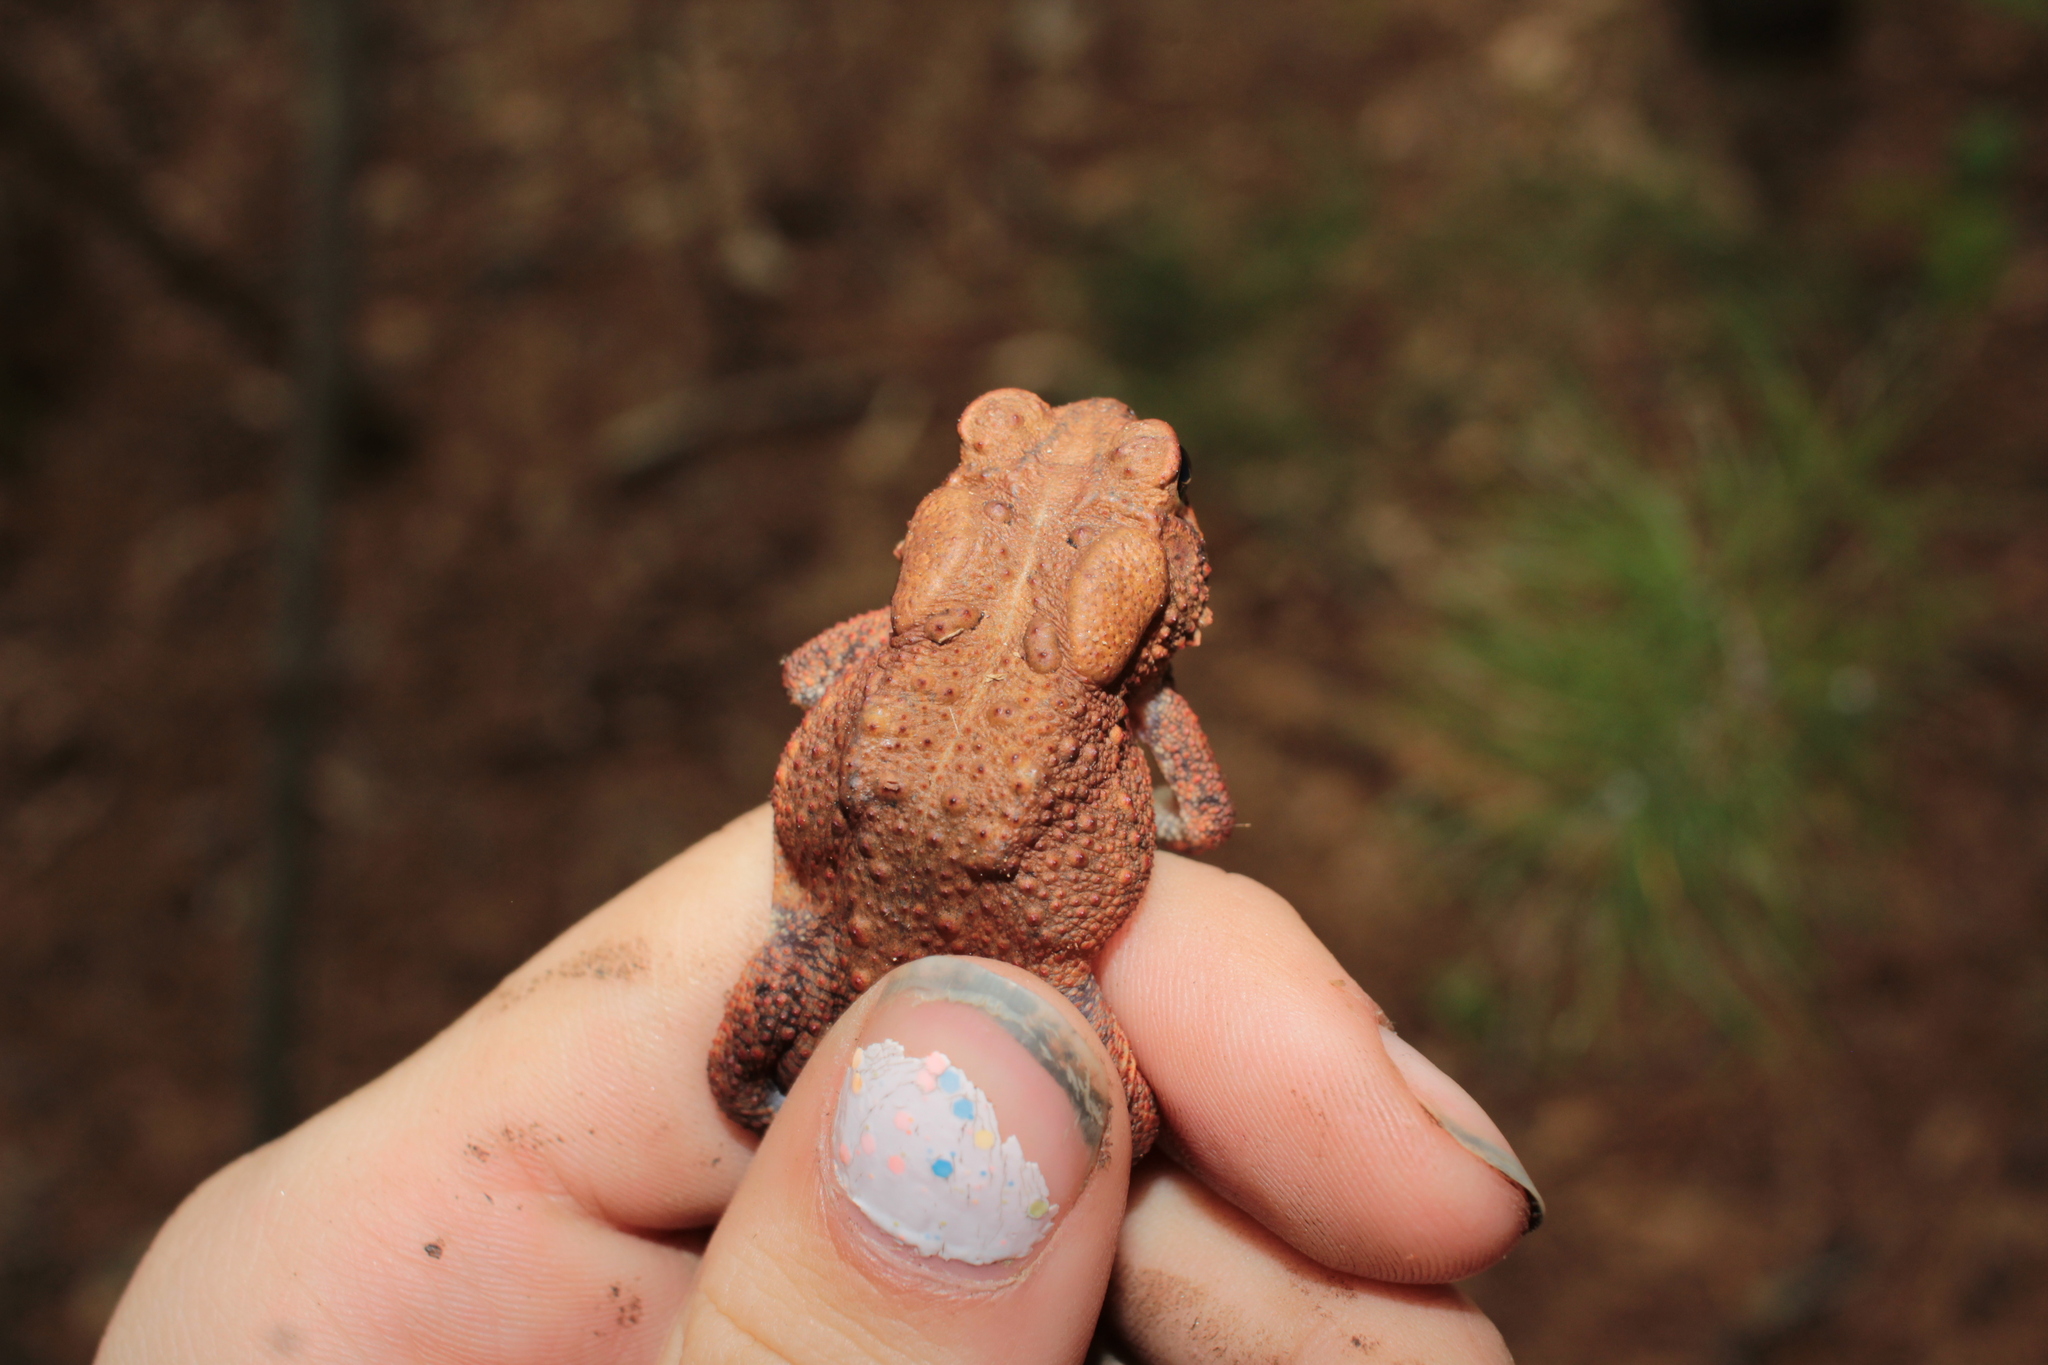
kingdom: Animalia
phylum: Chordata
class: Amphibia
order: Anura
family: Bufonidae
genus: Anaxyrus
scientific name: Anaxyrus americanus
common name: American toad
